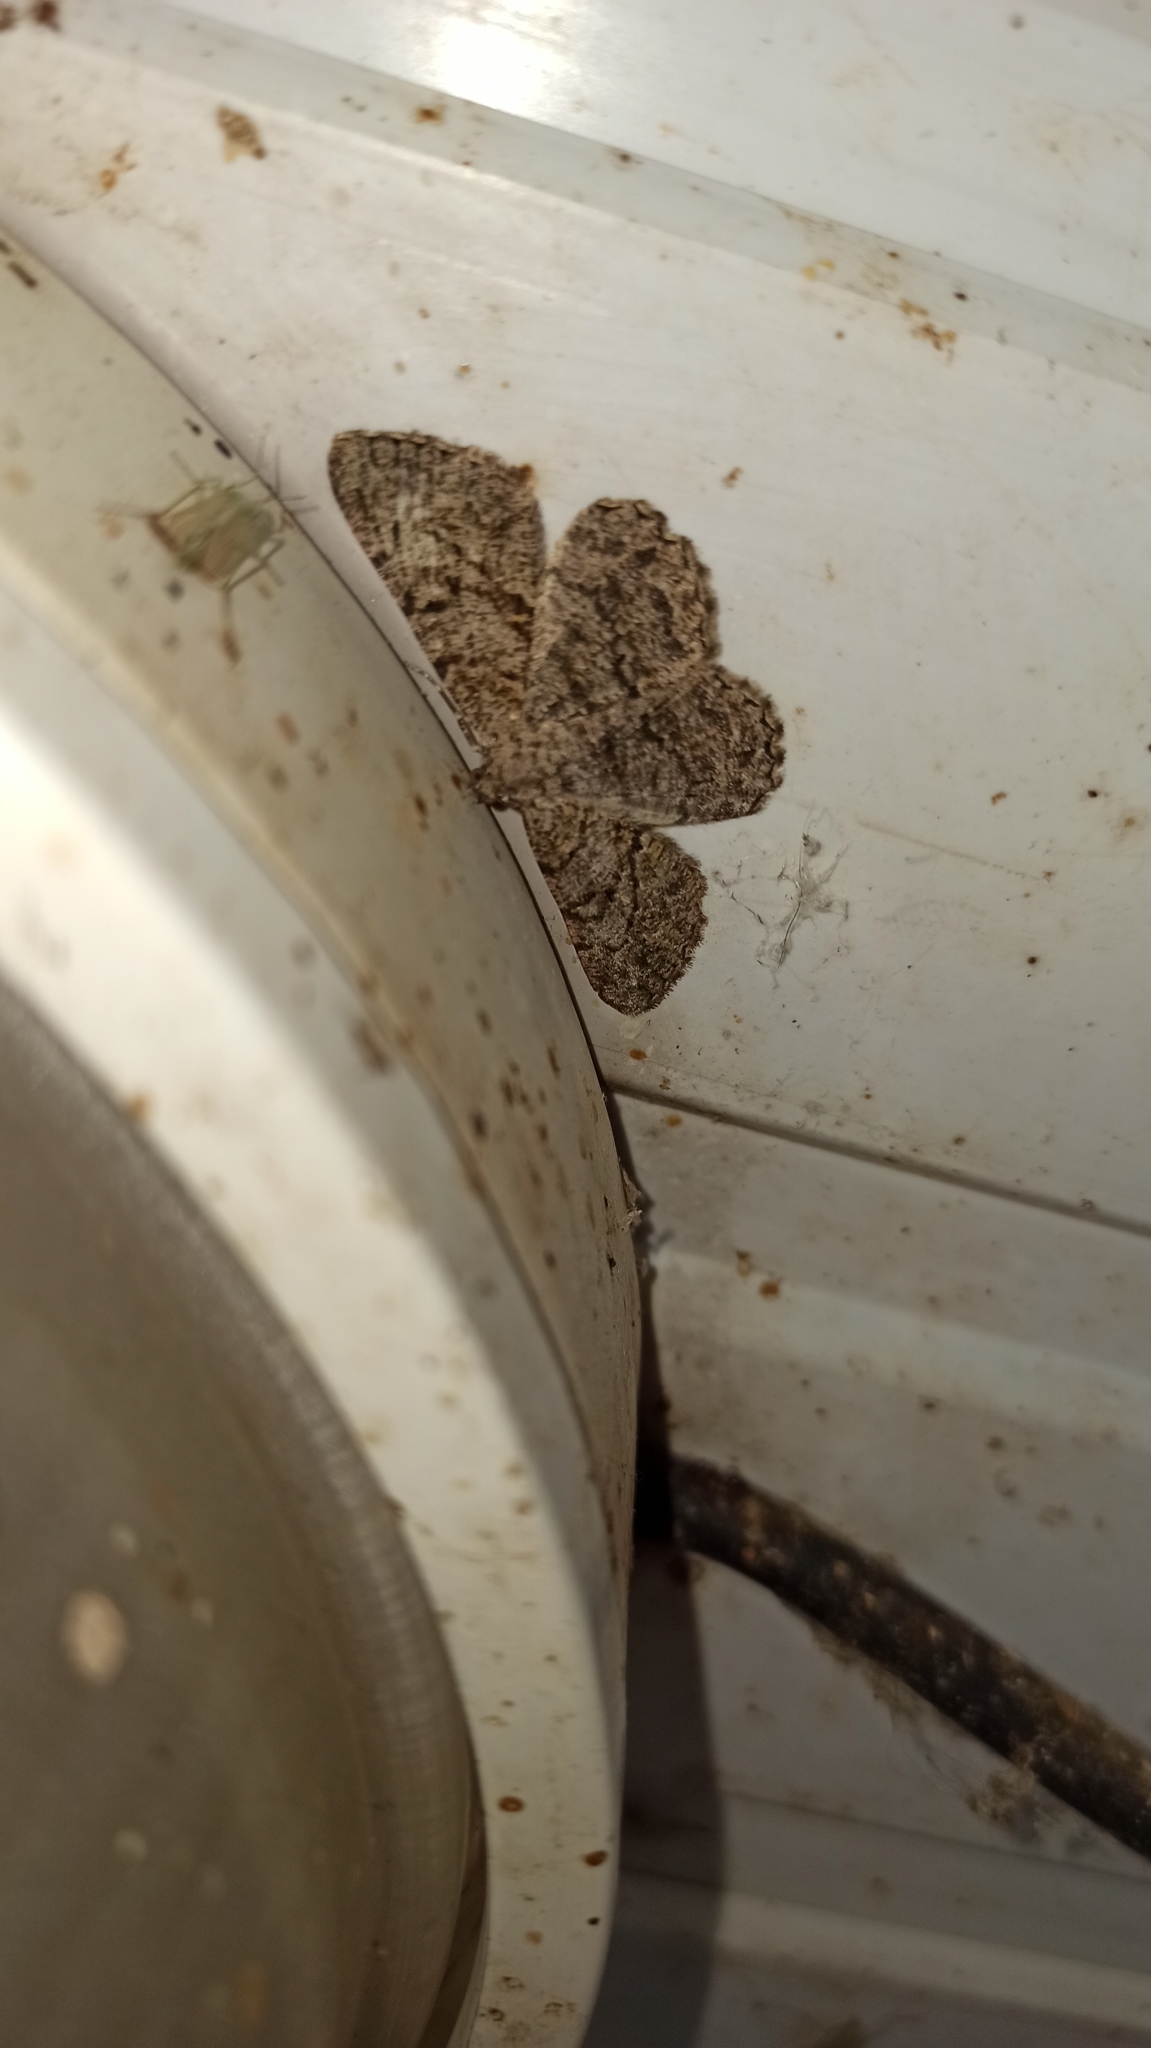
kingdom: Animalia
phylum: Arthropoda
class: Insecta
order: Lepidoptera
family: Geometridae
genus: Peribatodes
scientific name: Peribatodes rhomboidaria
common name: Willow beauty
